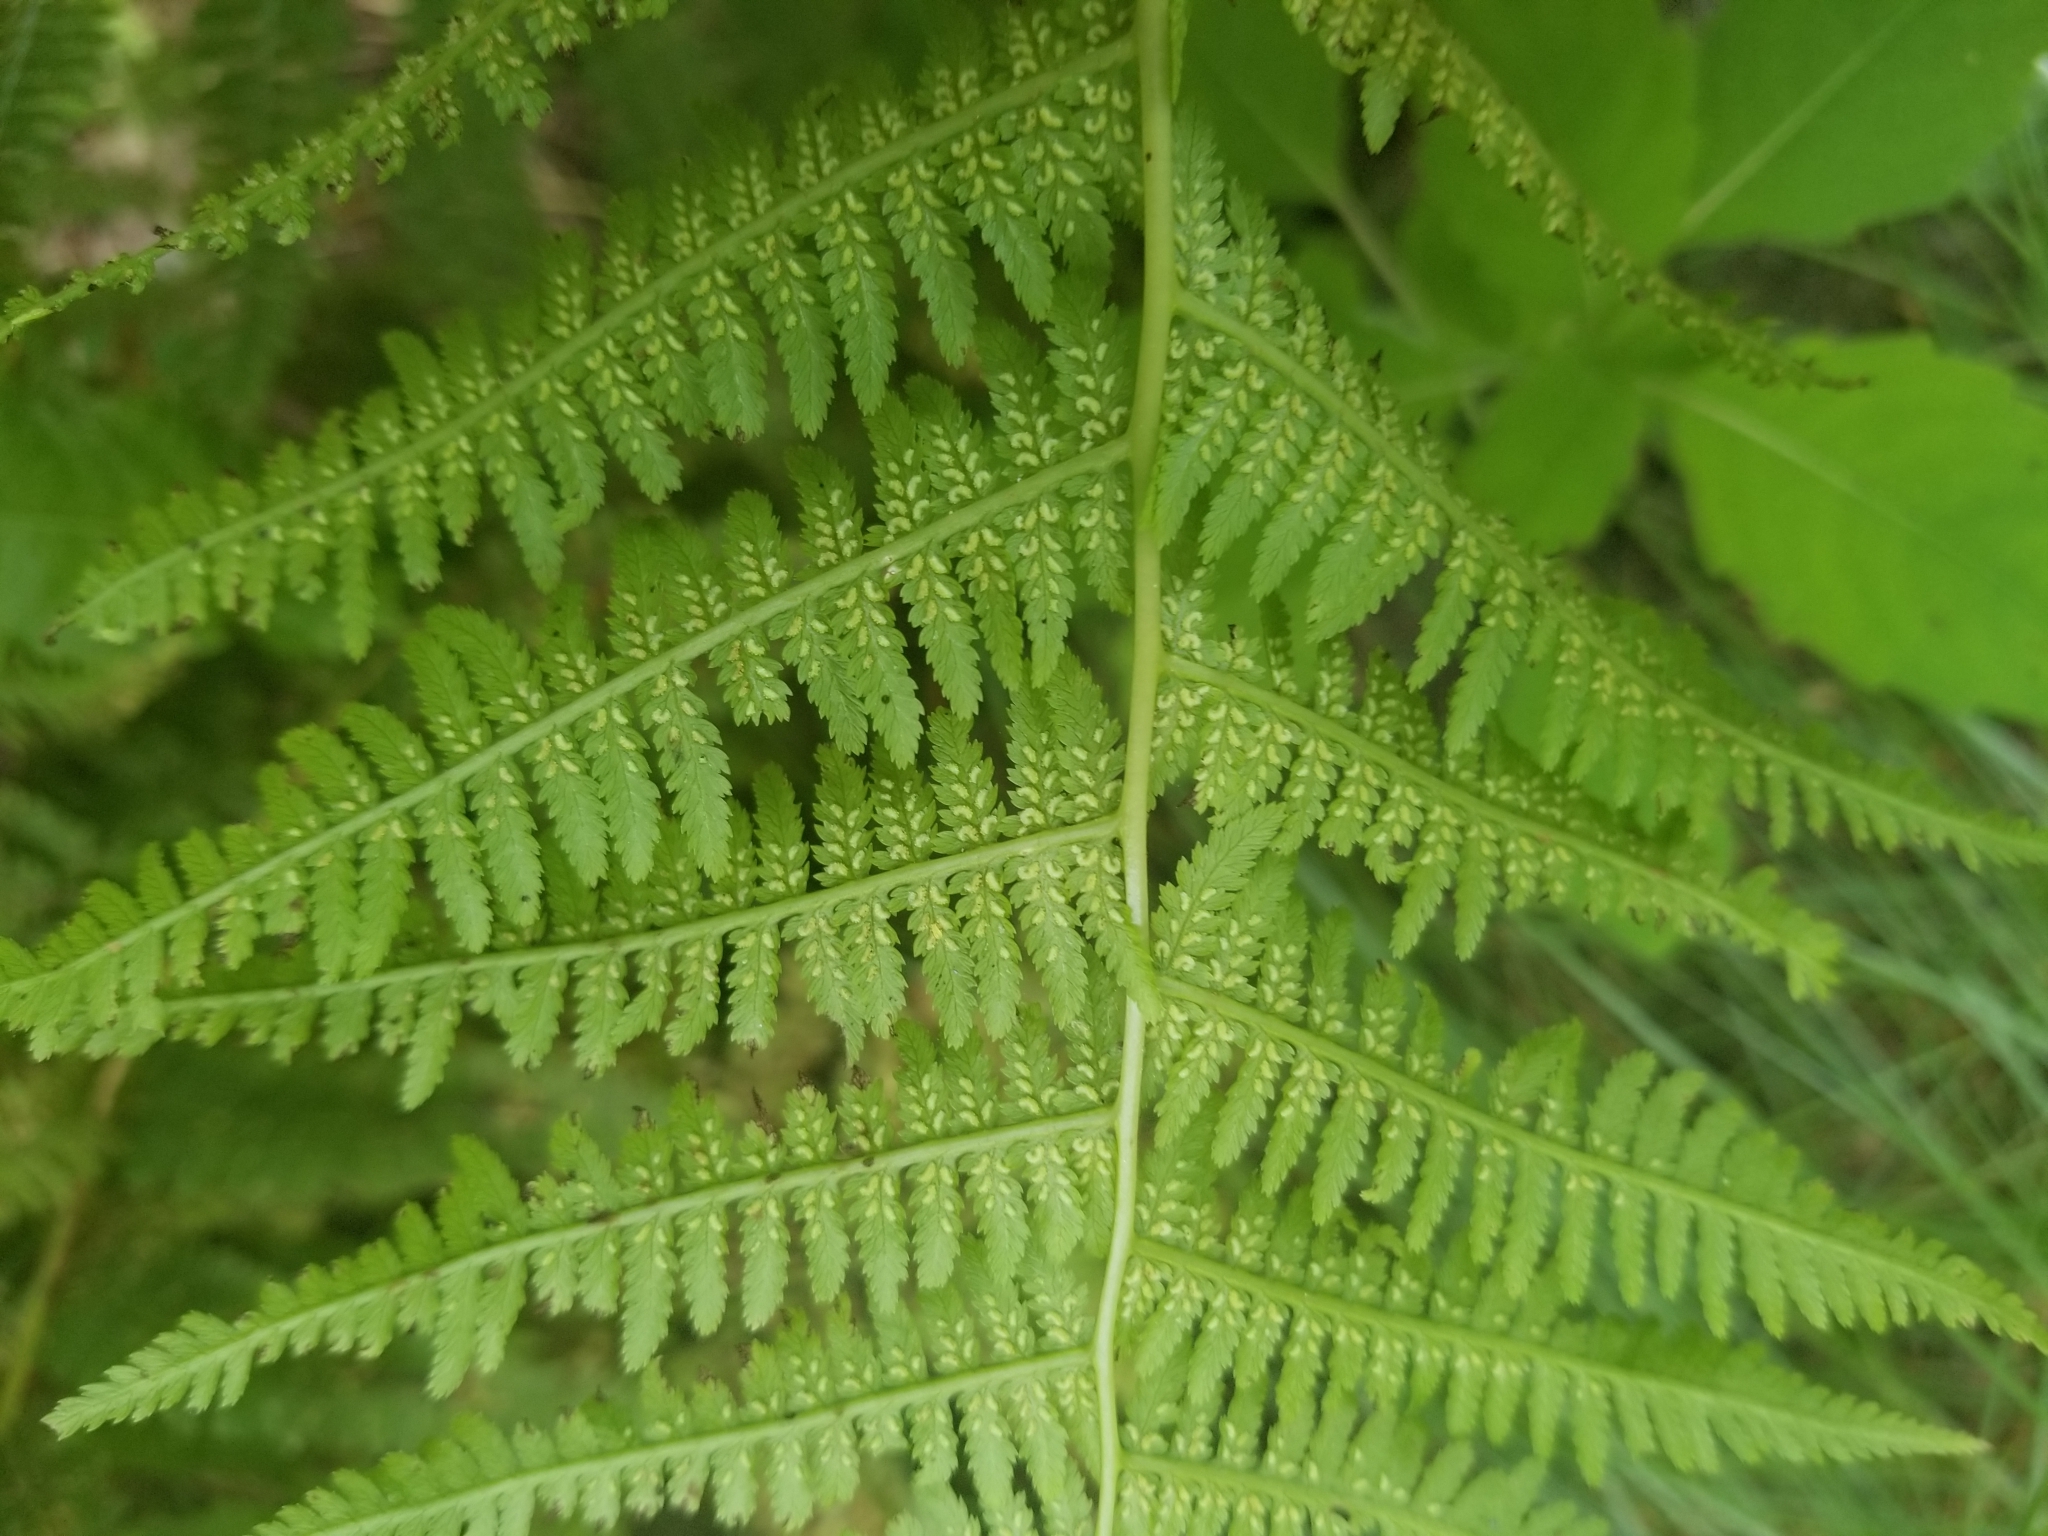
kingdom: Plantae
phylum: Tracheophyta
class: Polypodiopsida
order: Polypodiales
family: Athyriaceae
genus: Athyrium
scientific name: Athyrium angustum
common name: Northern lady fern
